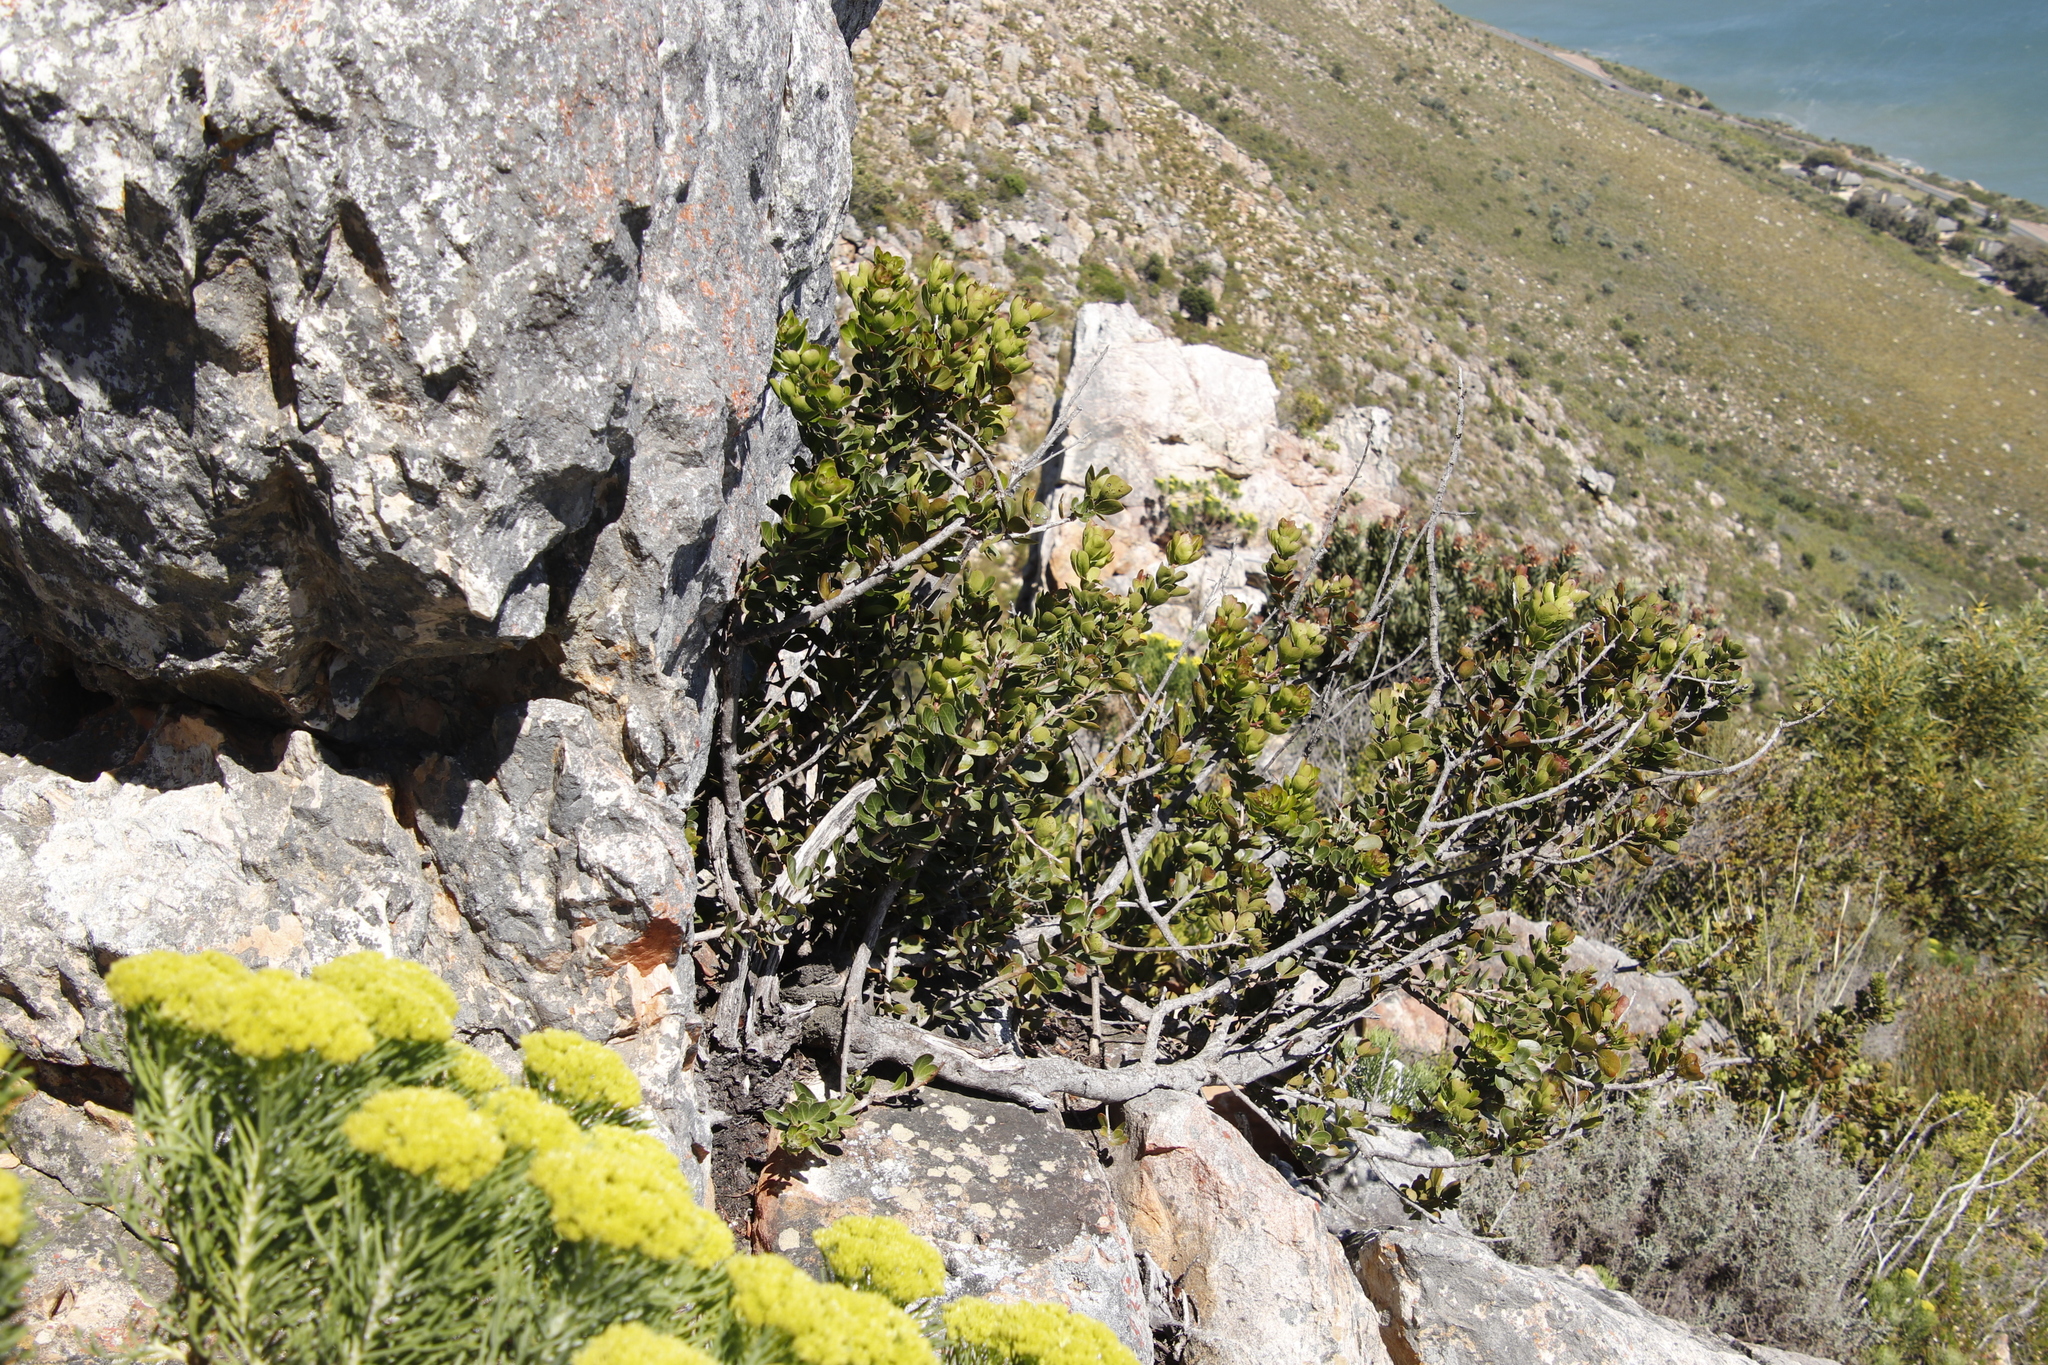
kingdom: Plantae
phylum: Tracheophyta
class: Magnoliopsida
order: Sapindales
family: Anacardiaceae
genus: Searsia
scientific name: Searsia scytophylla
